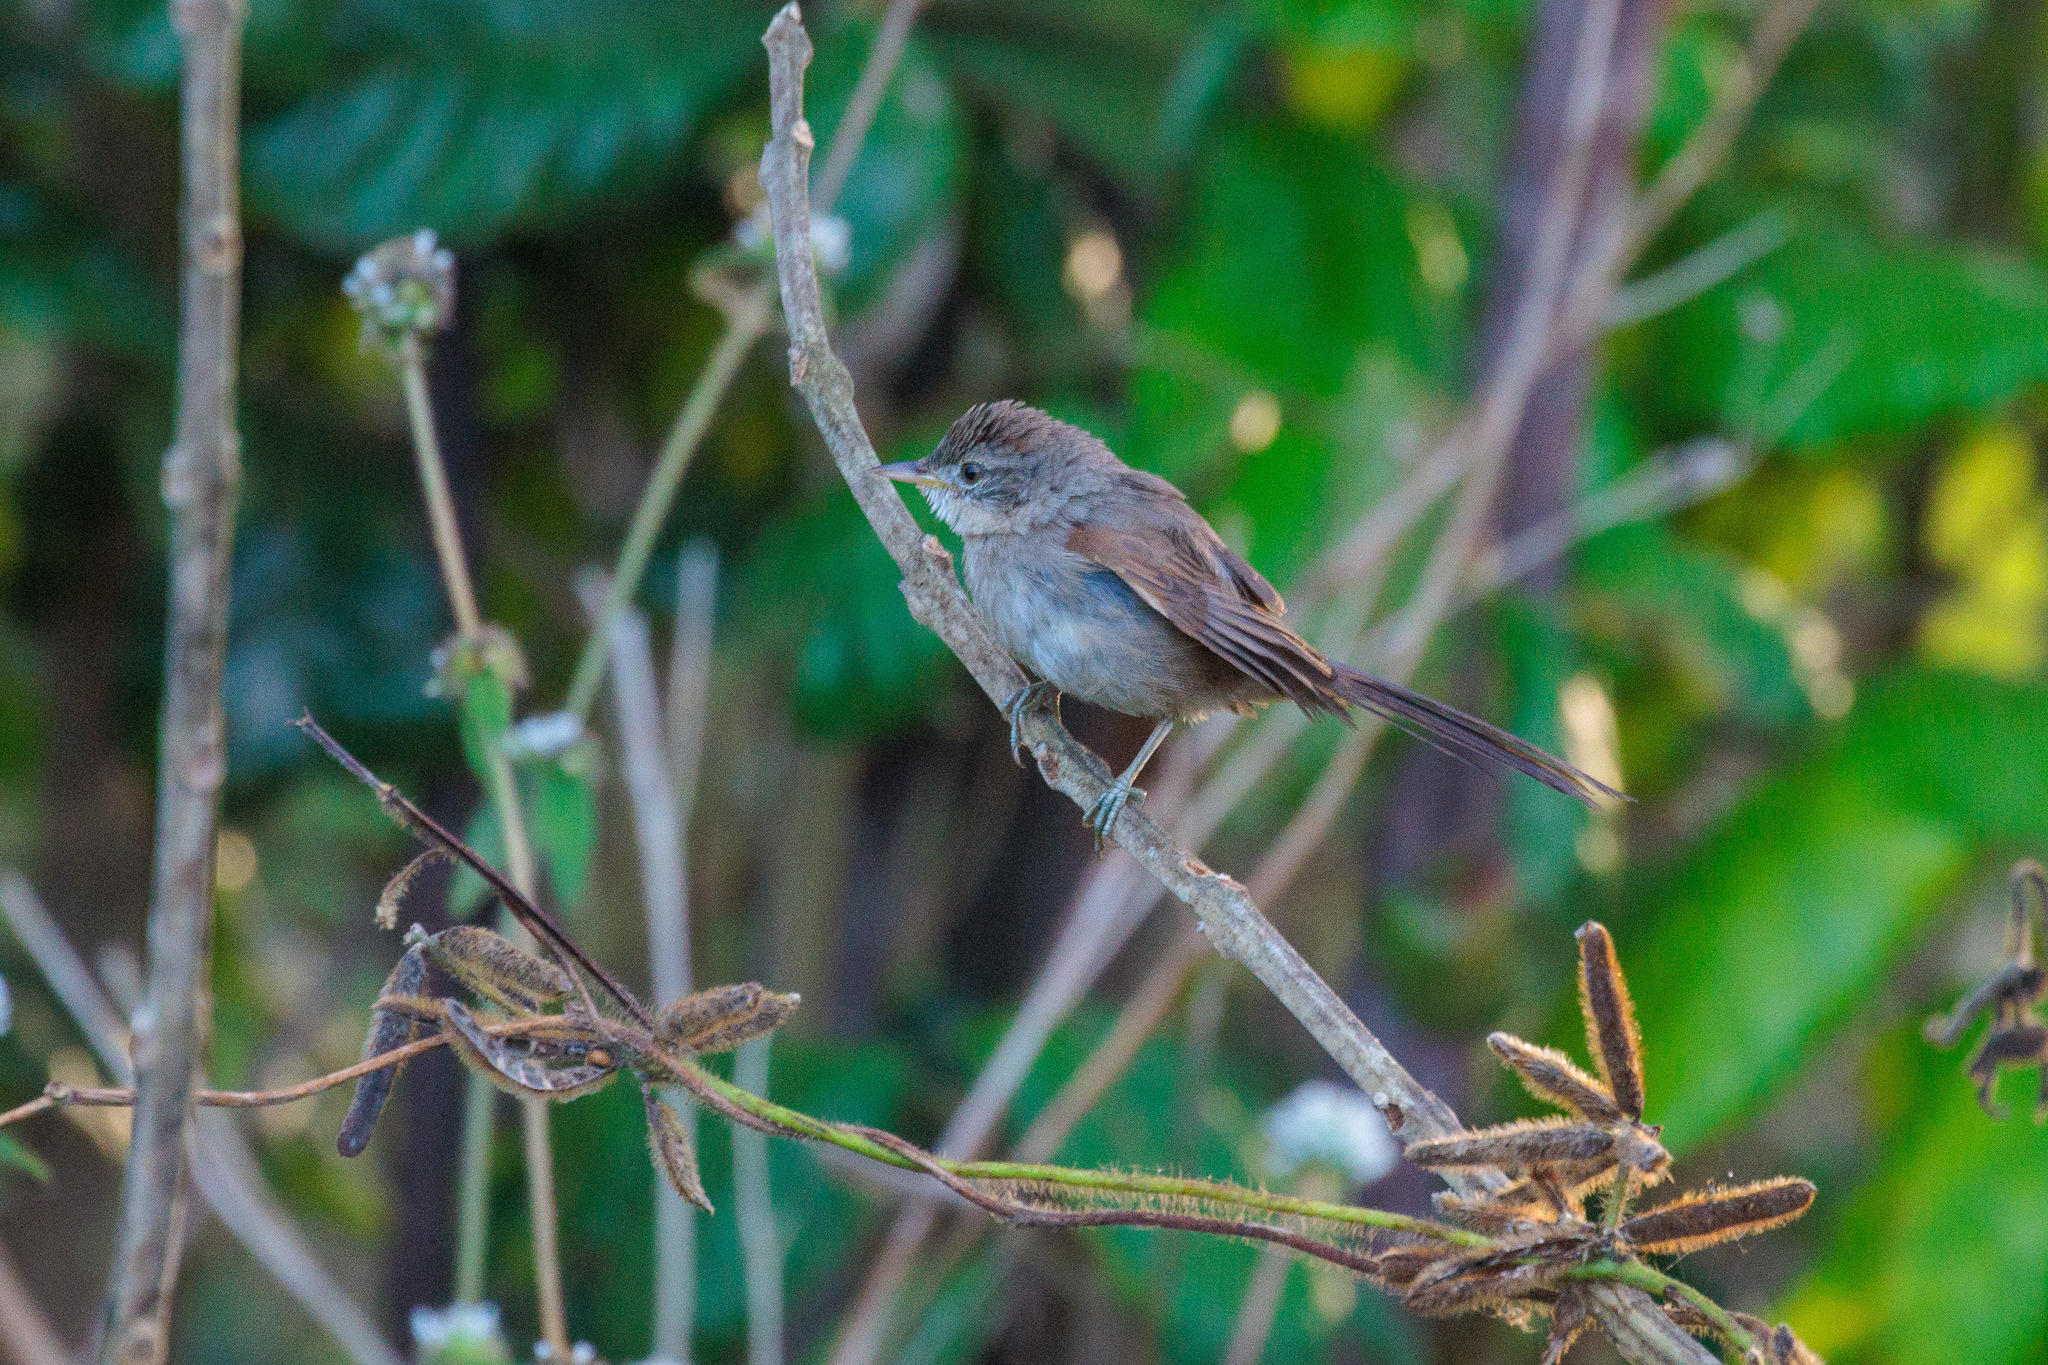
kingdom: Animalia
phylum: Chordata
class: Aves
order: Passeriformes
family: Furnariidae
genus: Synallaxis
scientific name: Synallaxis frontalis
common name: Sooty-fronted spinetail
